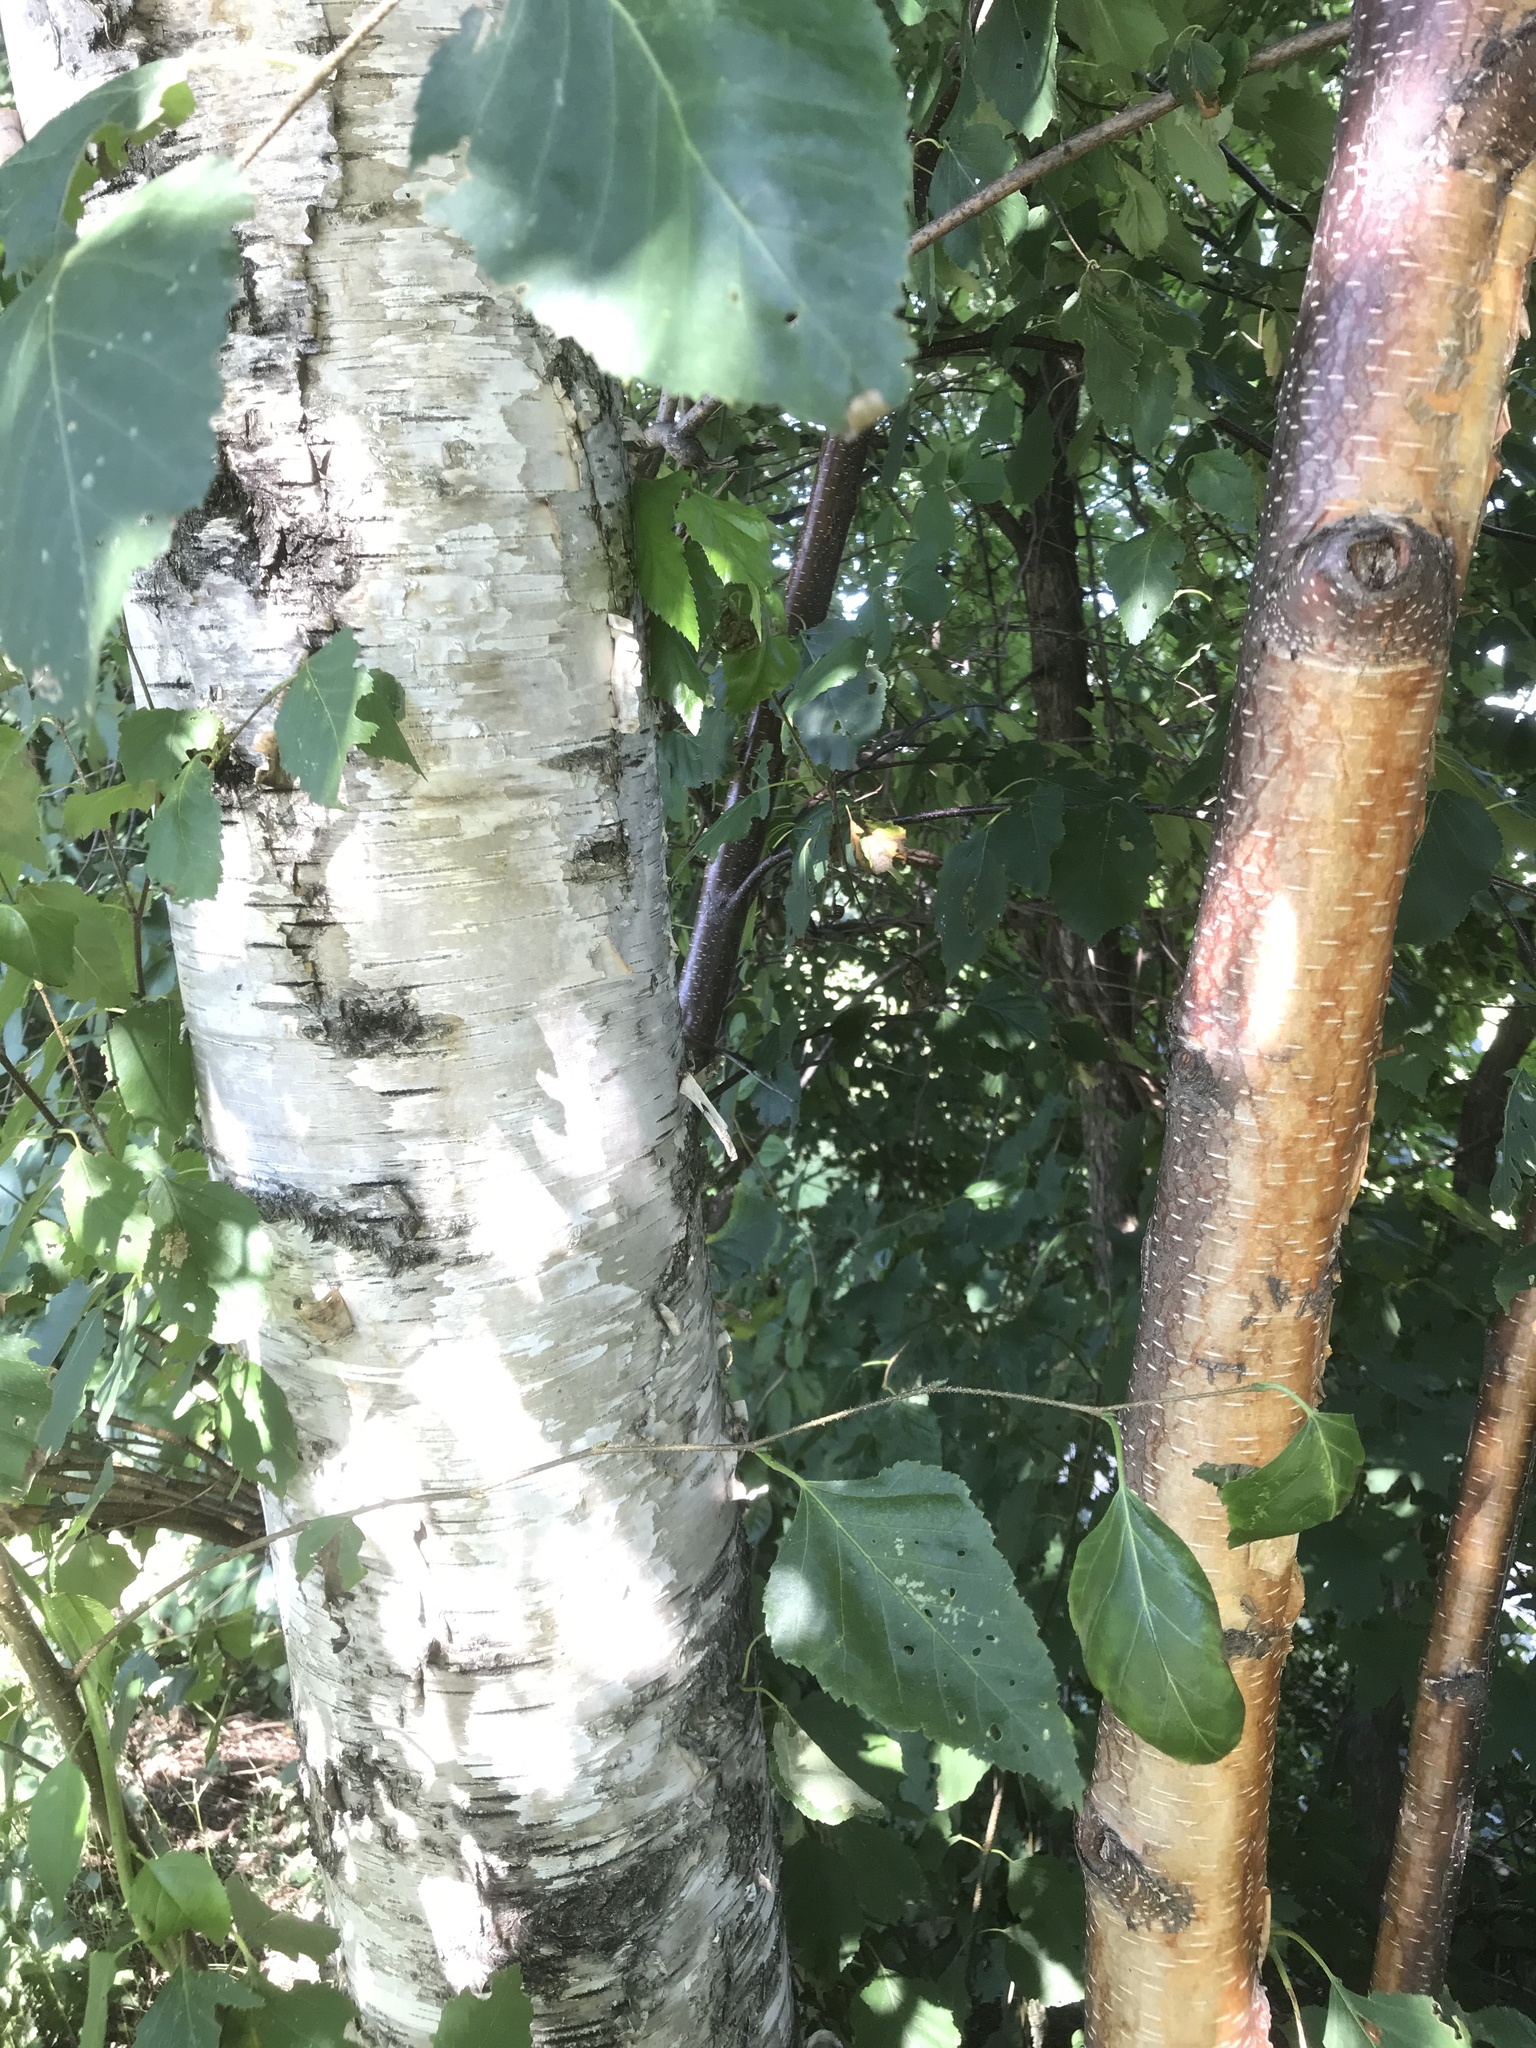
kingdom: Plantae
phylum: Tracheophyta
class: Magnoliopsida
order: Fagales
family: Betulaceae
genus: Betula
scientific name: Betula papyrifera
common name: Paper birch
